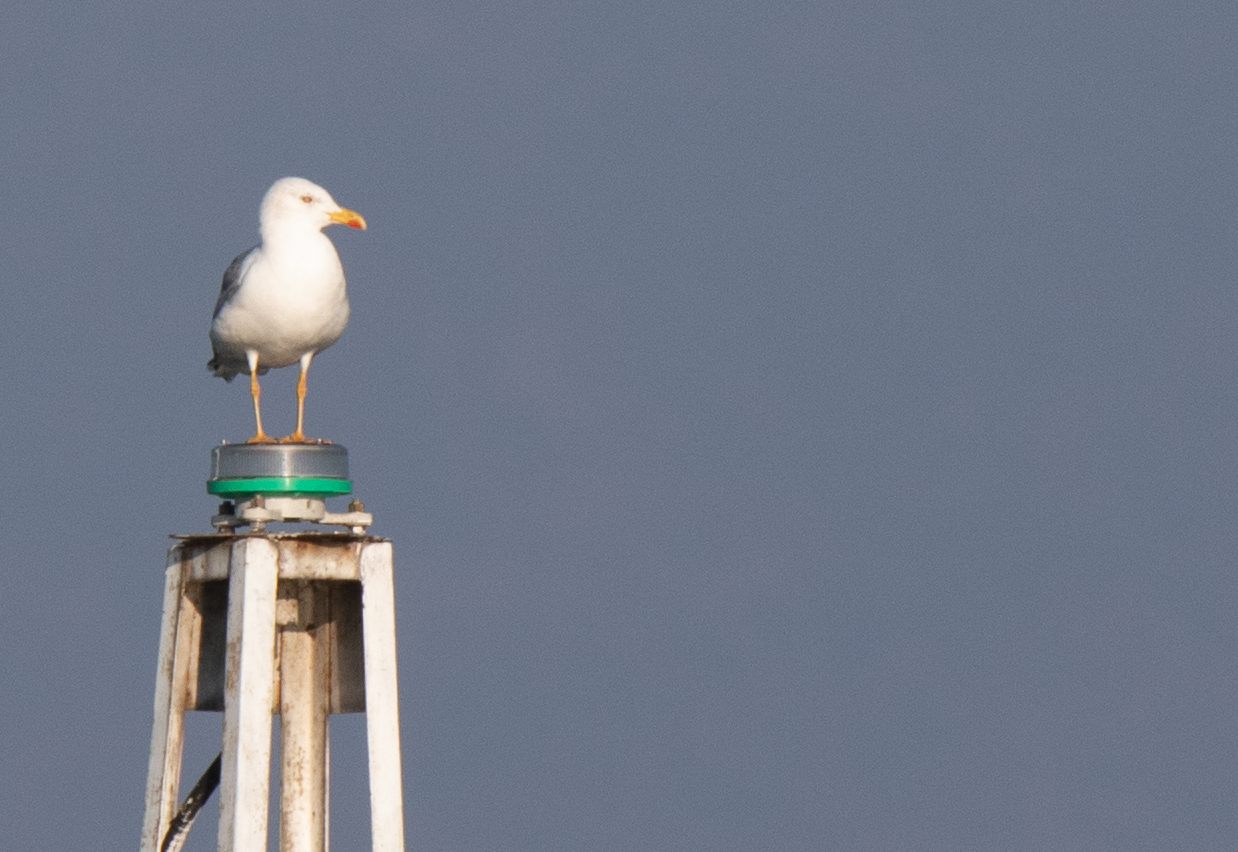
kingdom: Animalia
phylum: Chordata
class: Aves
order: Charadriiformes
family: Laridae
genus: Larus
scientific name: Larus michahellis
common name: Yellow-legged gull
